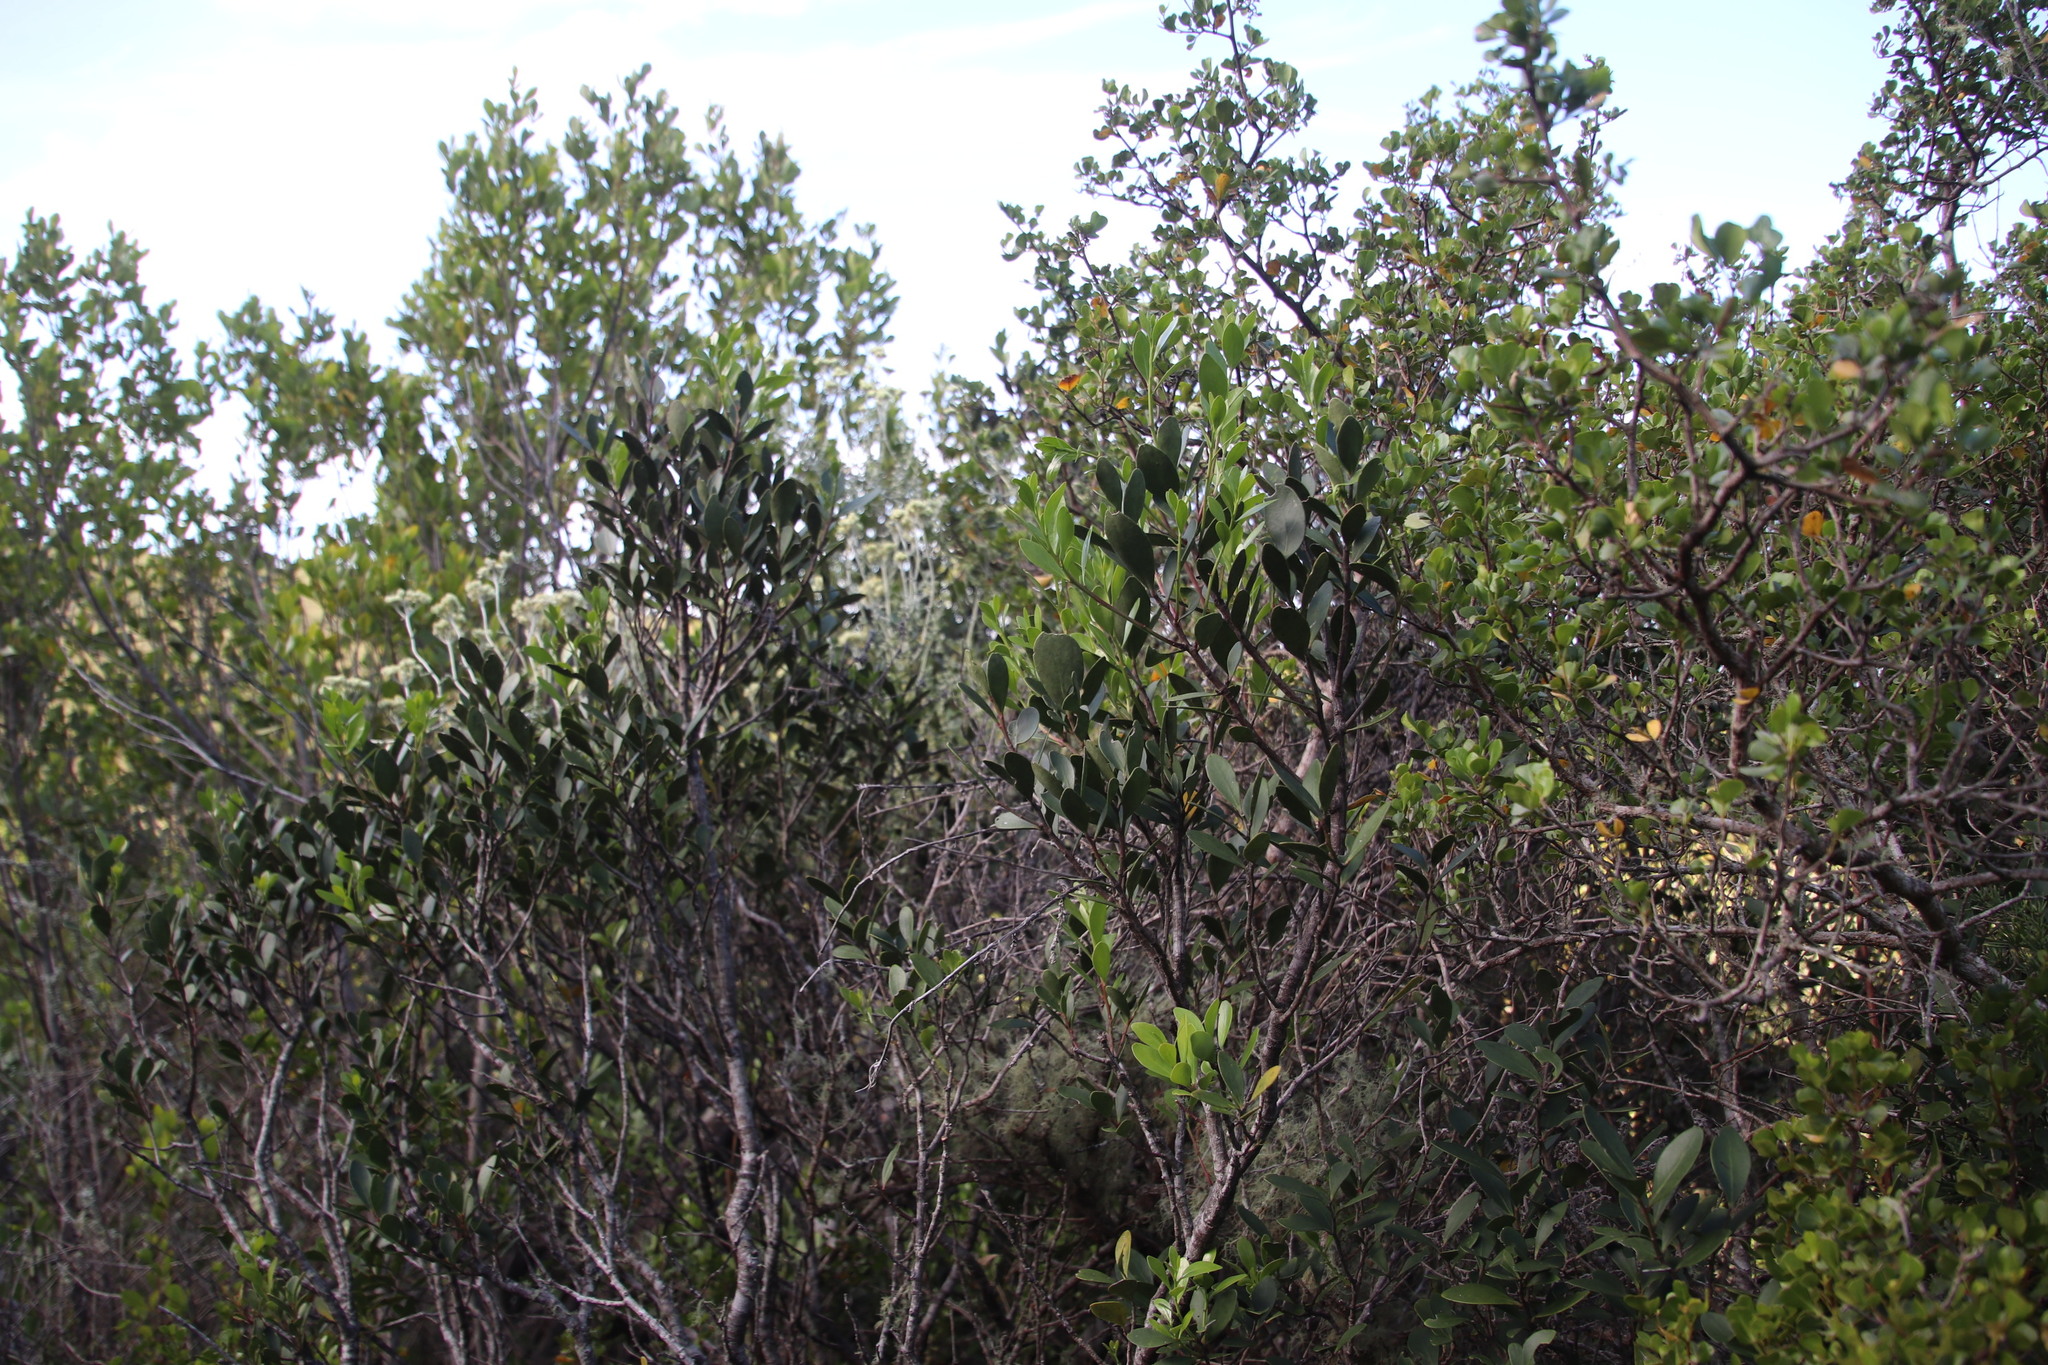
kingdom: Plantae
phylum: Tracheophyta
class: Magnoliopsida
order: Celastrales
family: Celastraceae
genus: Gymnosporia
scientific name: Gymnosporia laurina
